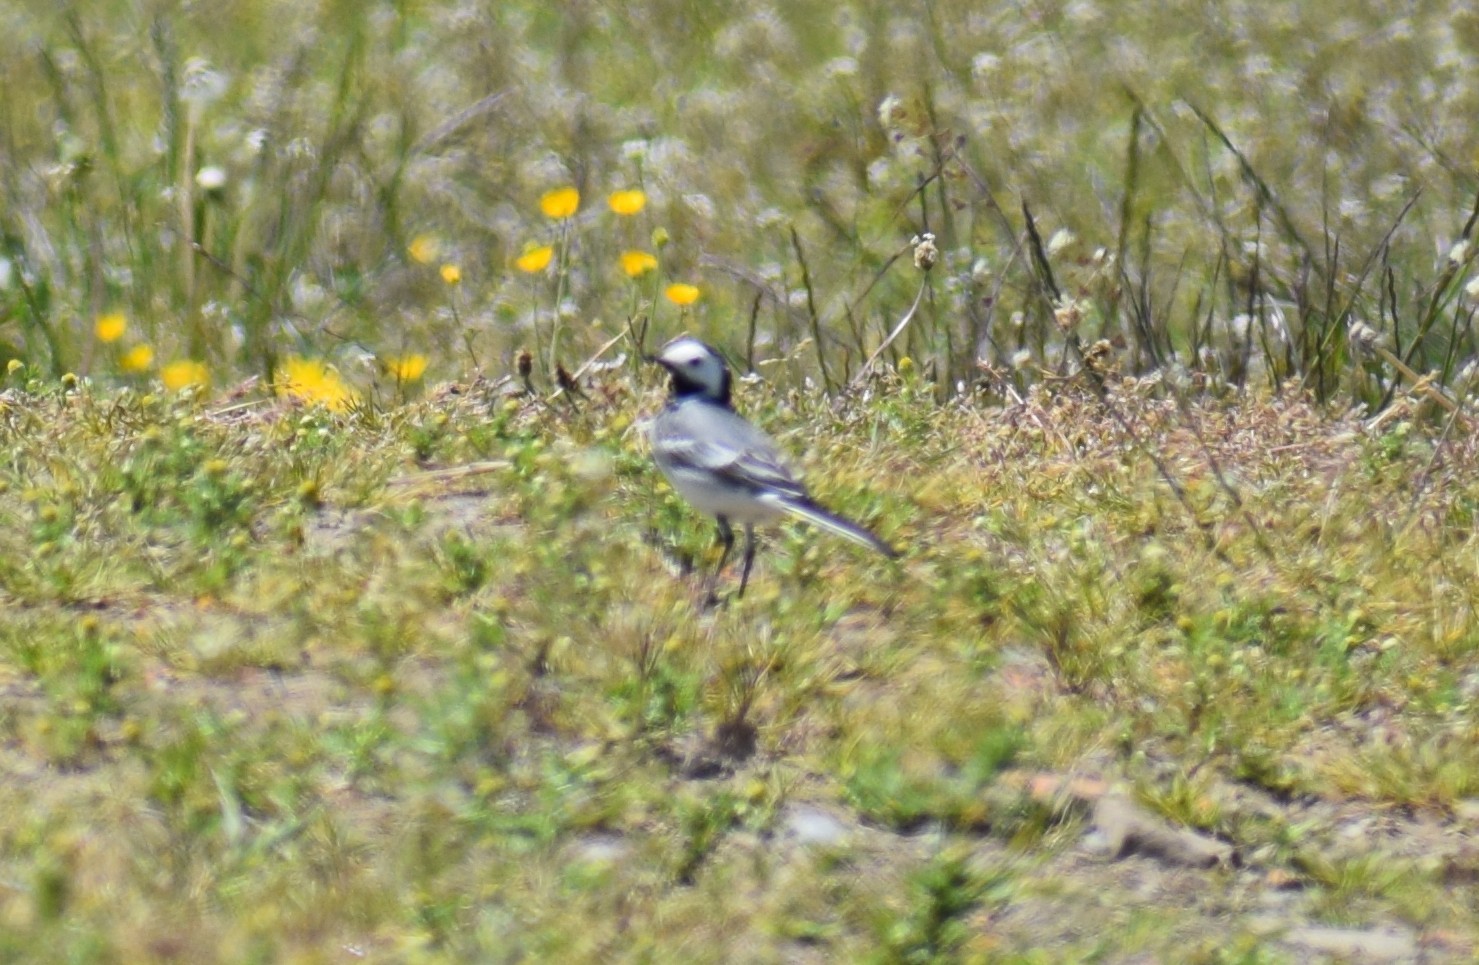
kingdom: Animalia
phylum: Chordata
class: Aves
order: Passeriformes
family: Motacillidae
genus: Motacilla
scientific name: Motacilla alba
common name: White wagtail
